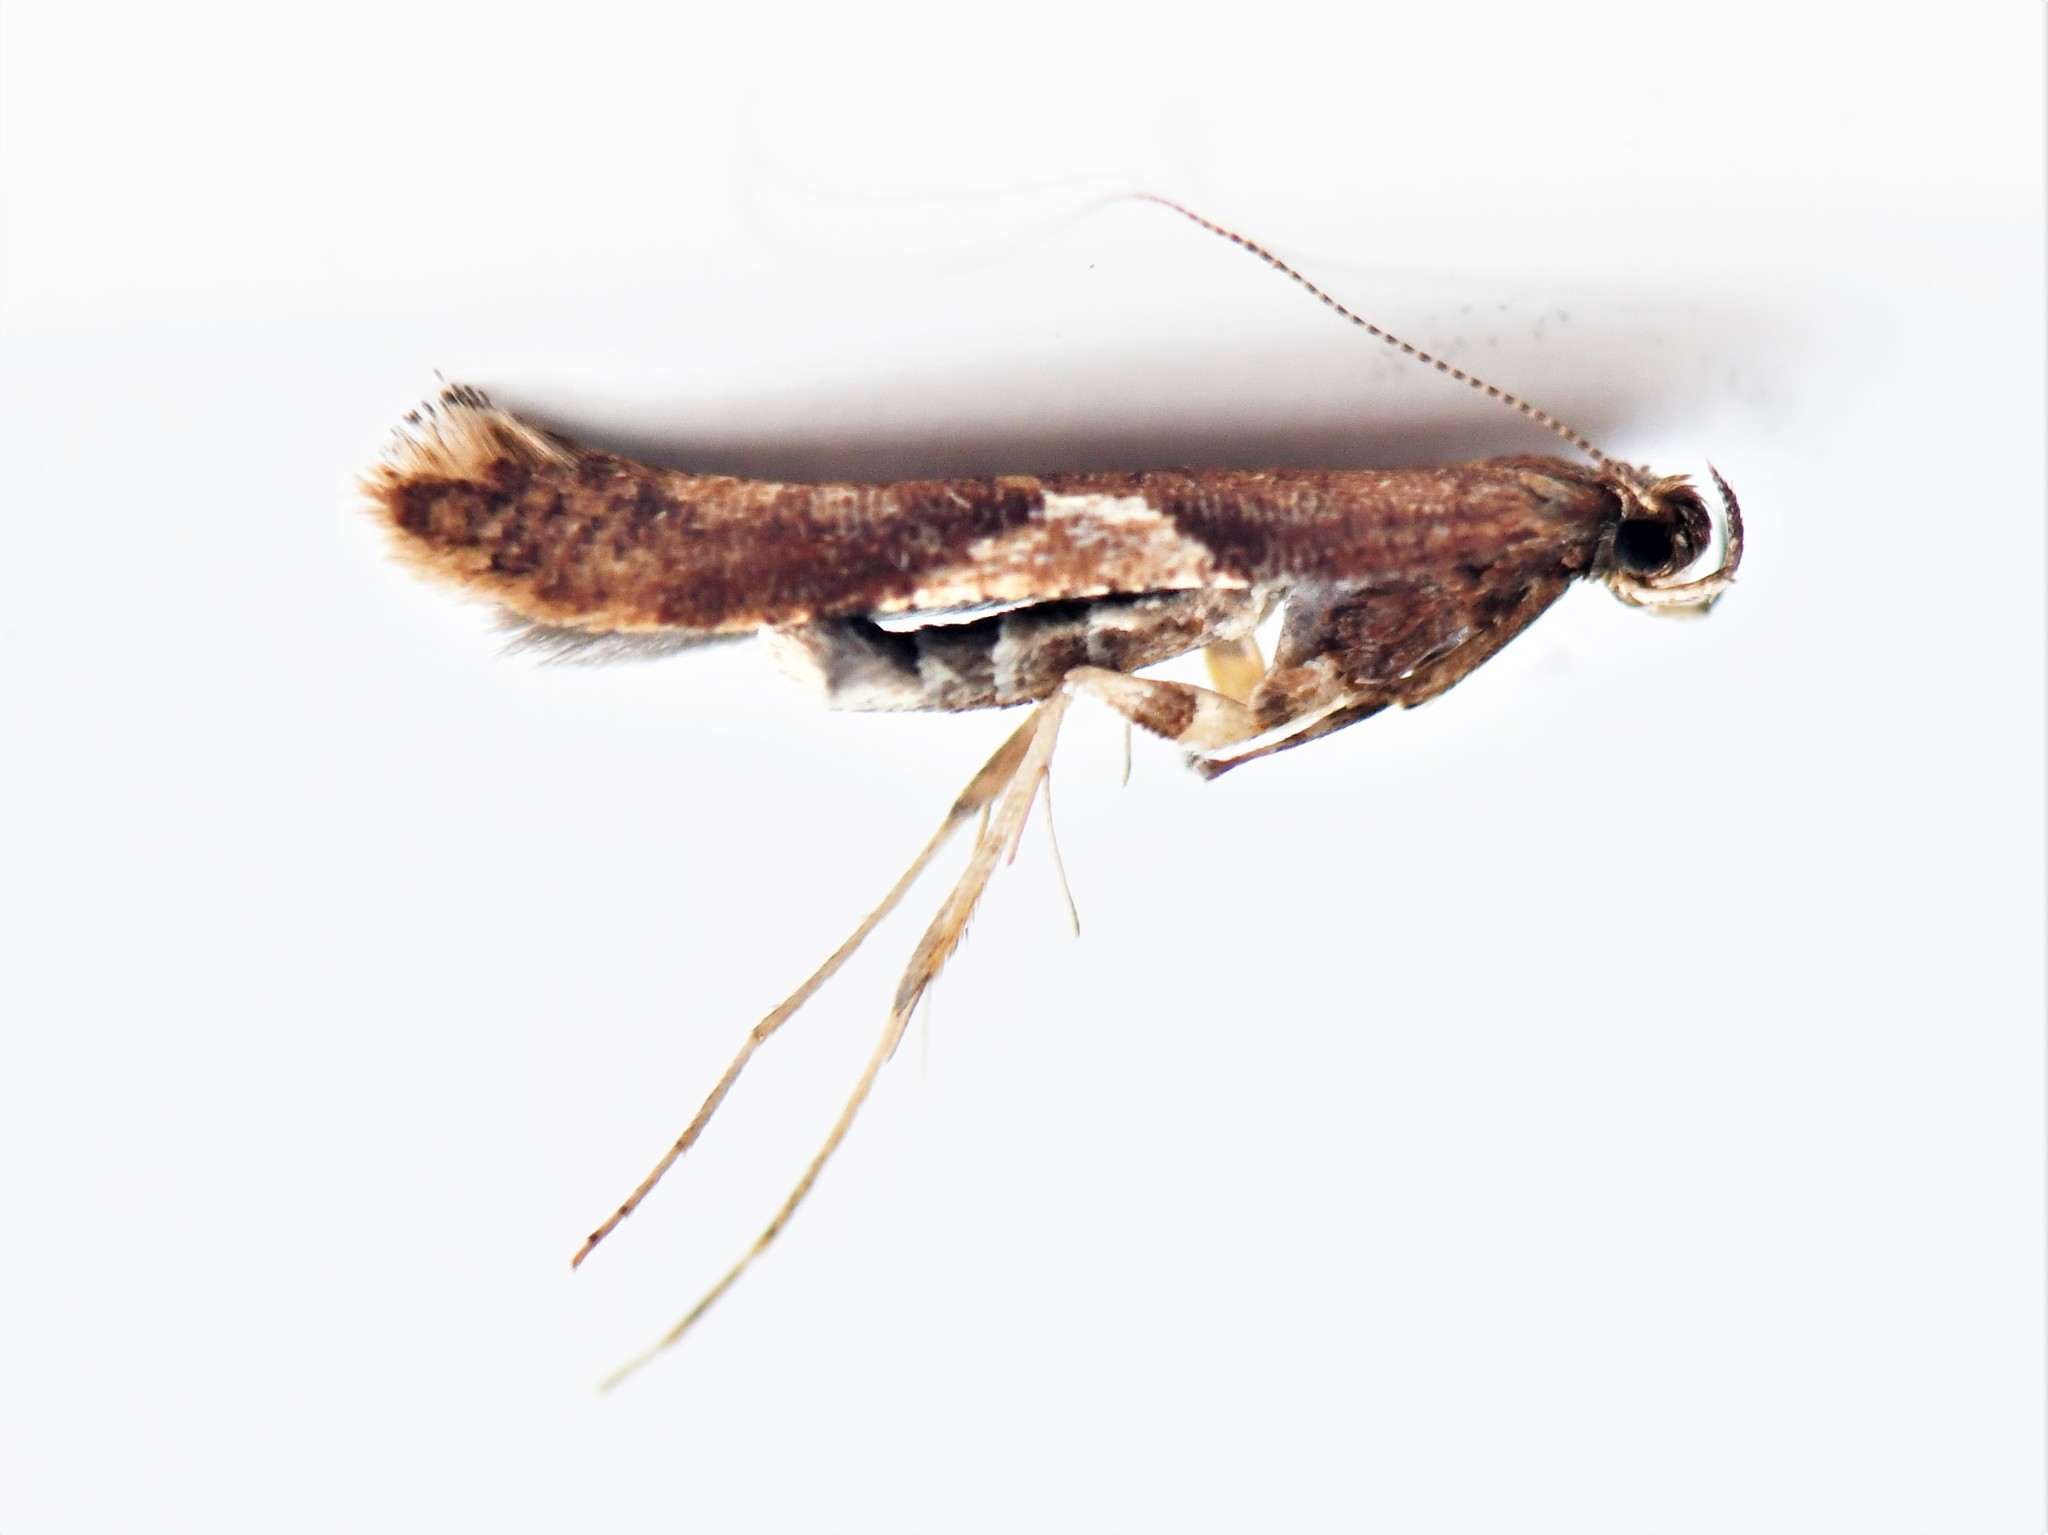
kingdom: Animalia
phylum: Arthropoda
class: Insecta
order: Lepidoptera
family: Gracillariidae
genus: Caloptilia
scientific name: Caloptilia stigmatella
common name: White-triangle slender
